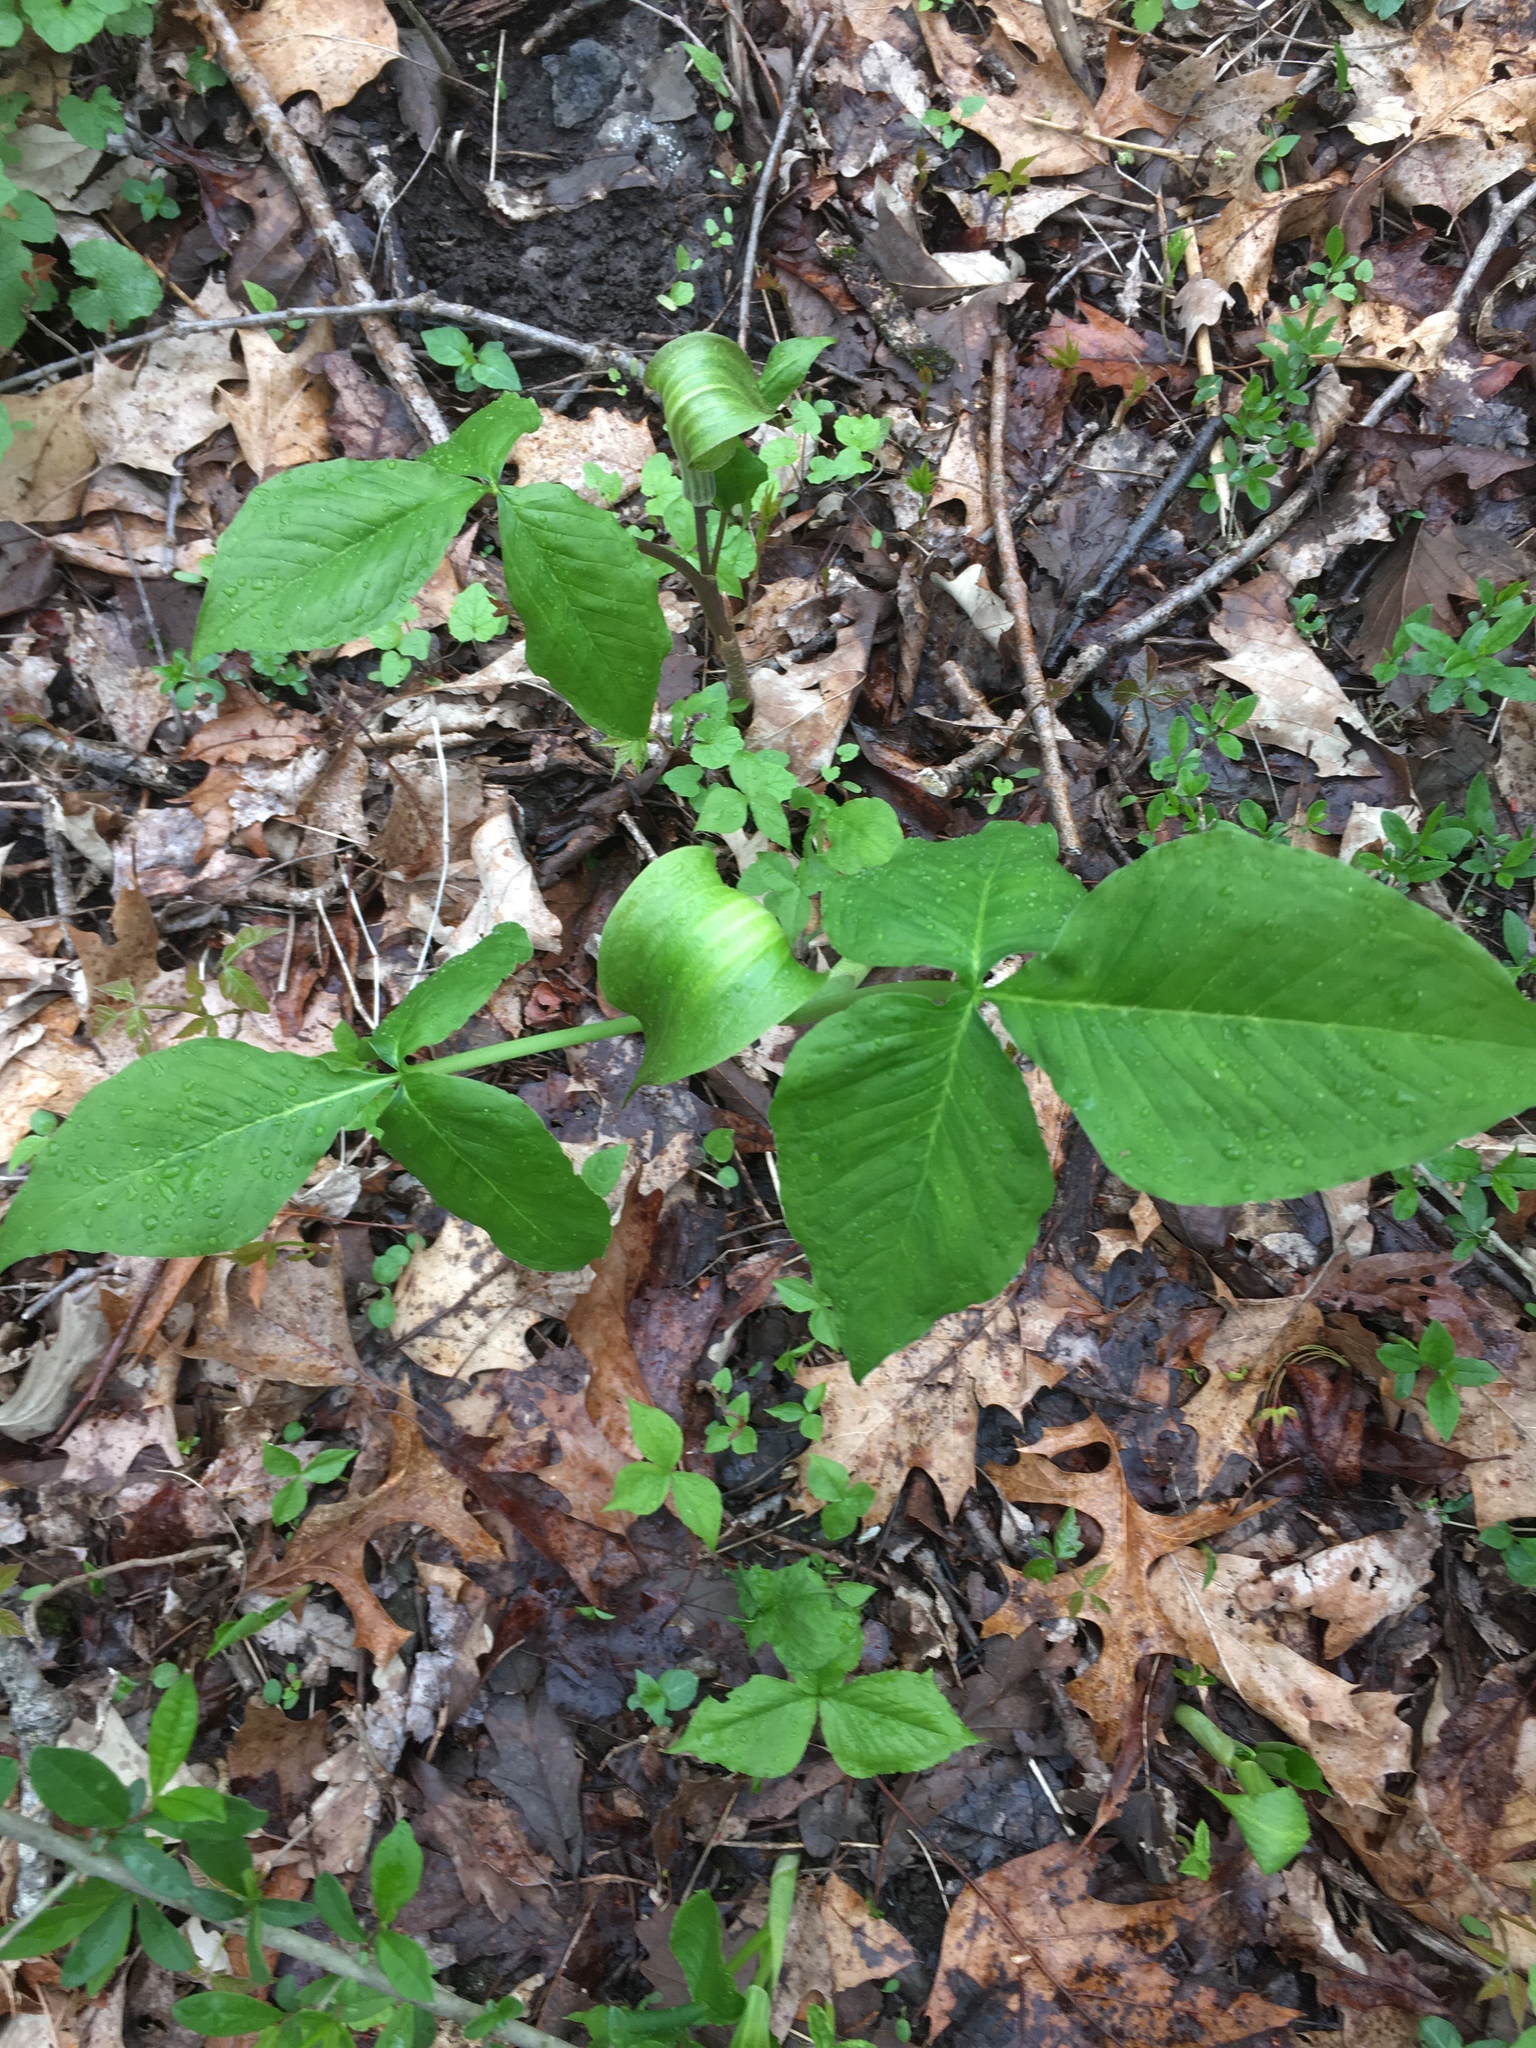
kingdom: Plantae
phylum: Tracheophyta
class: Liliopsida
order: Alismatales
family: Araceae
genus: Arisaema
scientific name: Arisaema triphyllum
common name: Jack-in-the-pulpit
